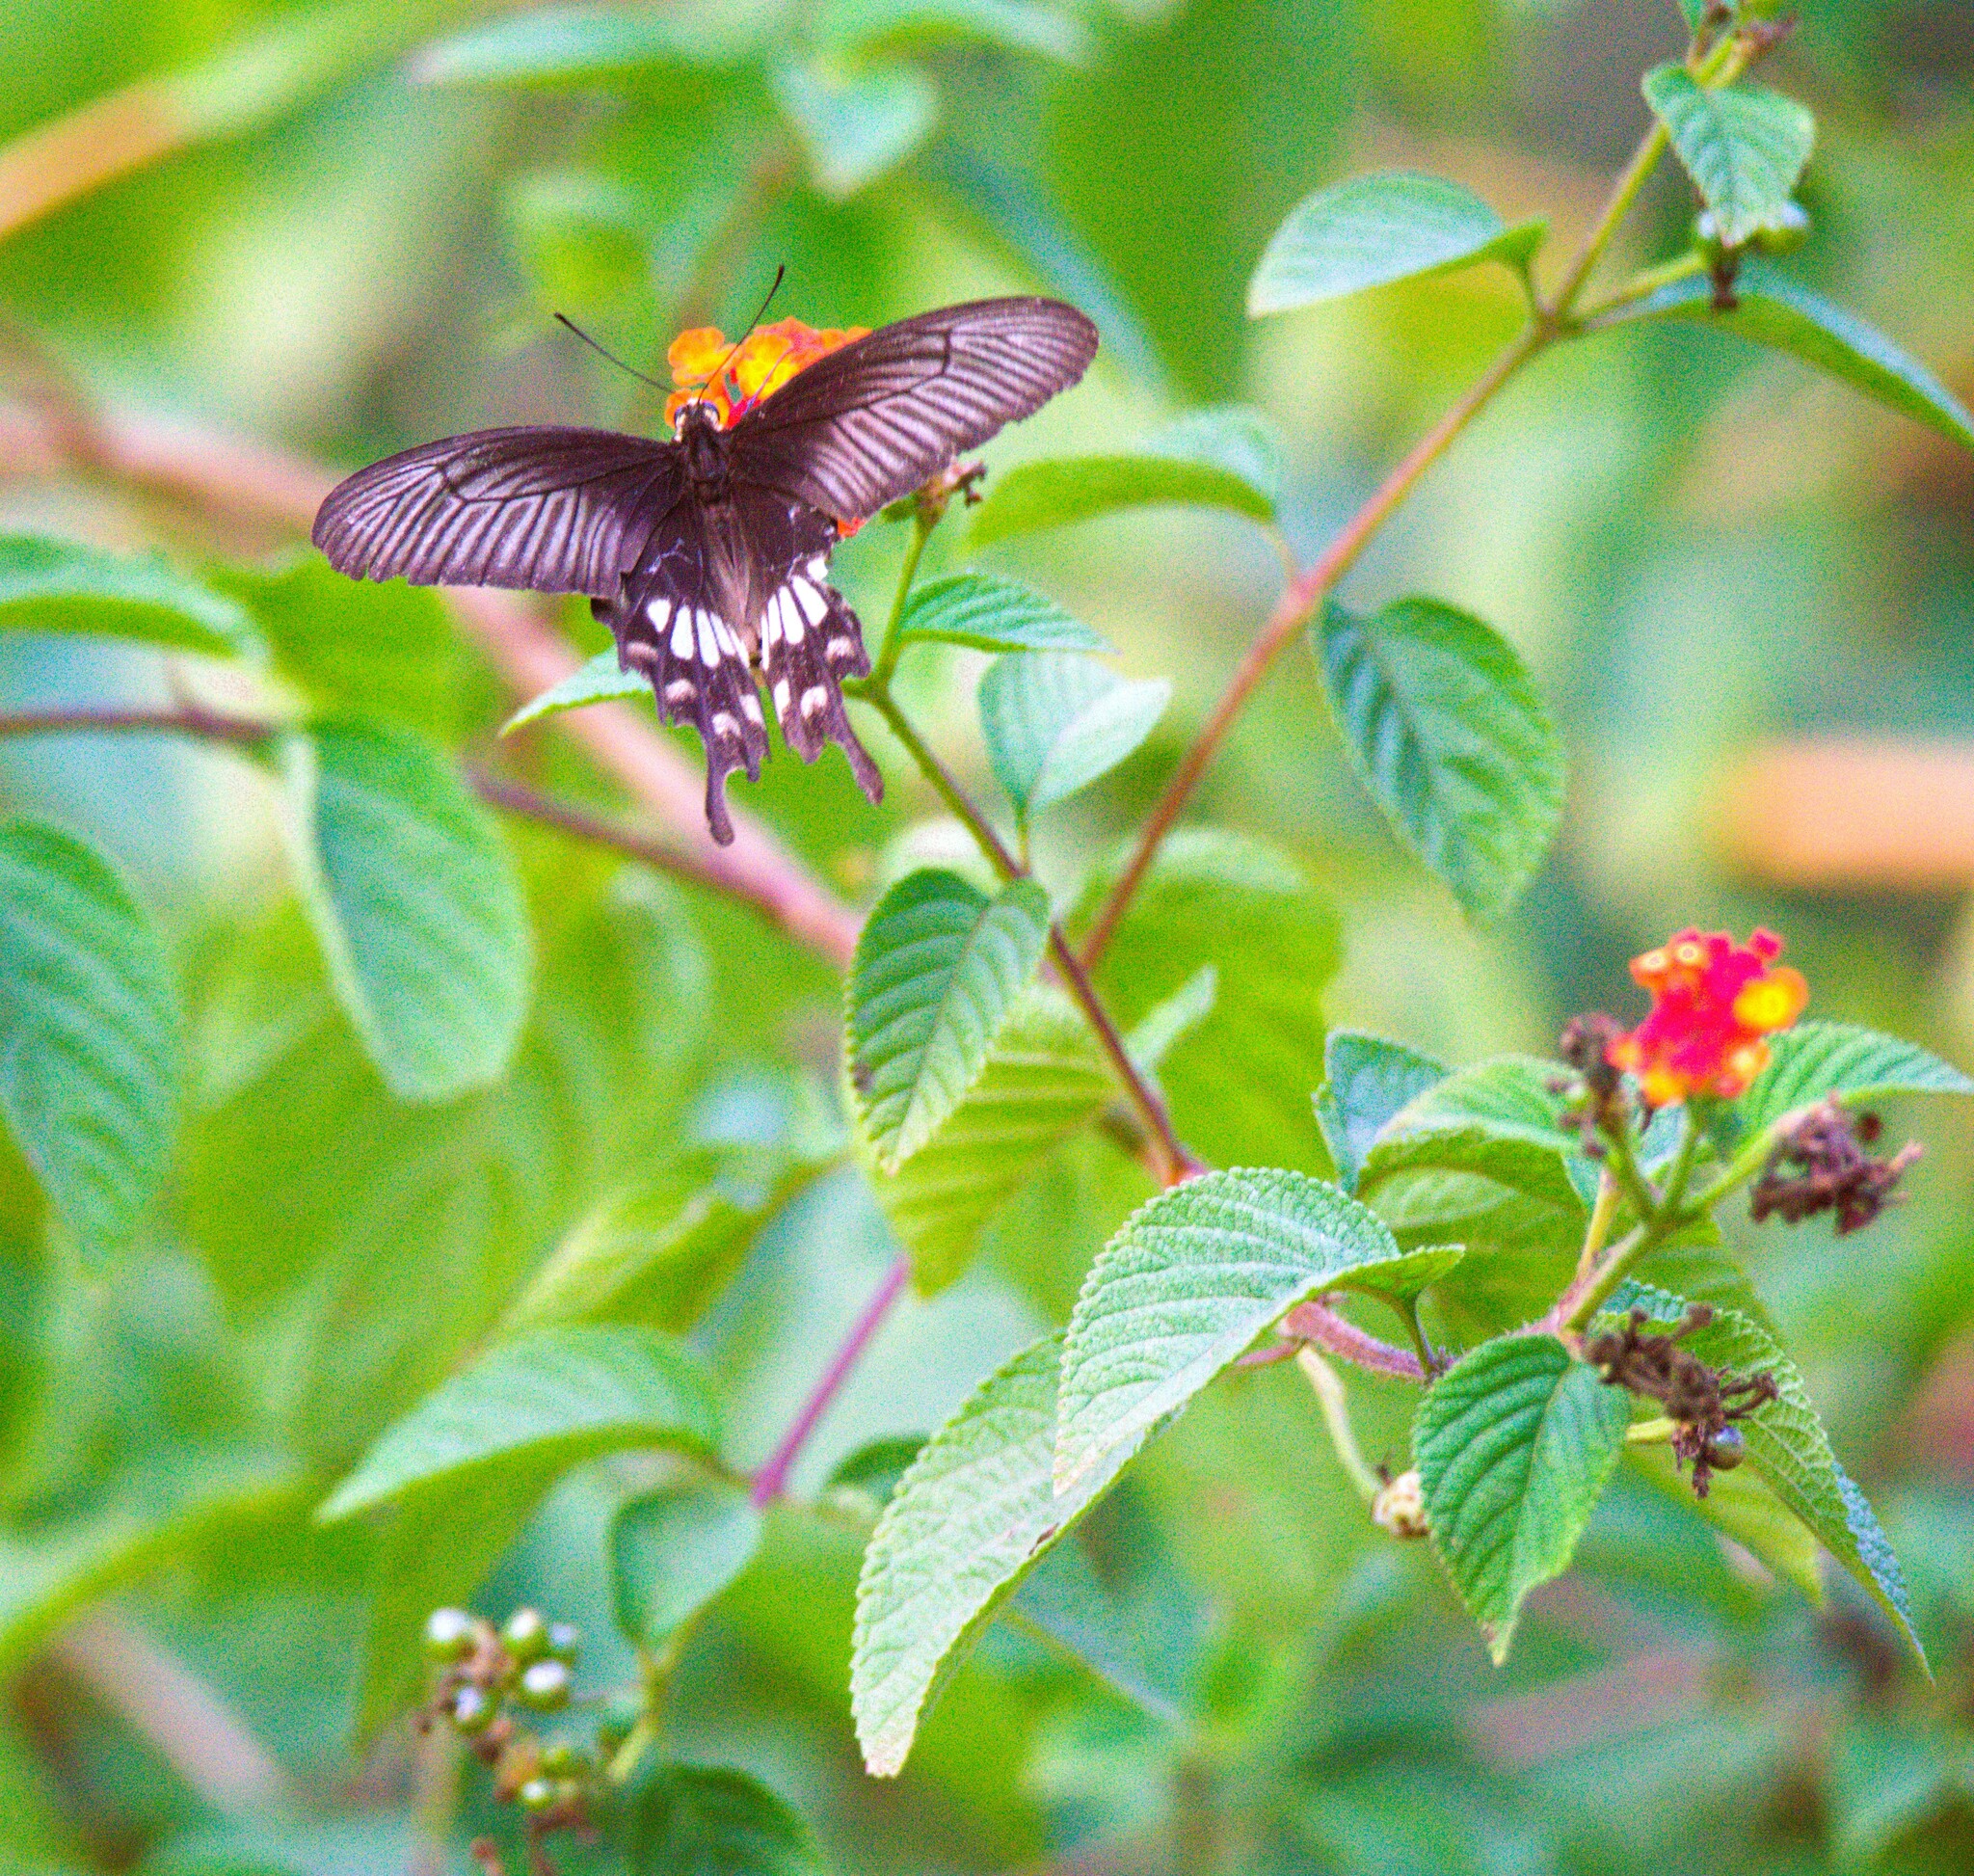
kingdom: Animalia
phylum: Arthropoda
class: Insecta
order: Lepidoptera
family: Papilionidae
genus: Pachliopta
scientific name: Pachliopta aristolochiae
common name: Common rose
